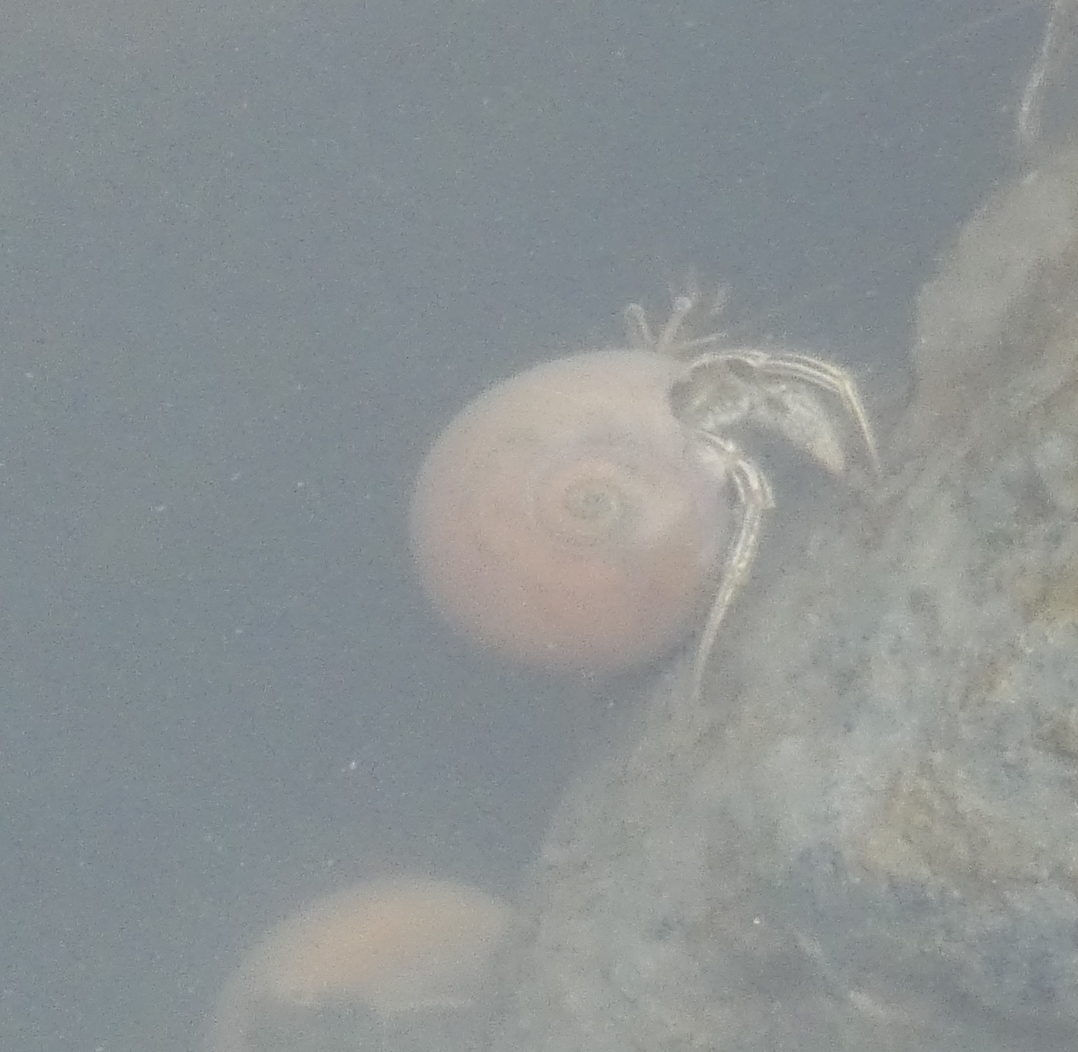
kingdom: Animalia
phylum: Arthropoda
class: Malacostraca
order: Decapoda
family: Diogenidae
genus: Clibanarius
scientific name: Clibanarius vittatus
